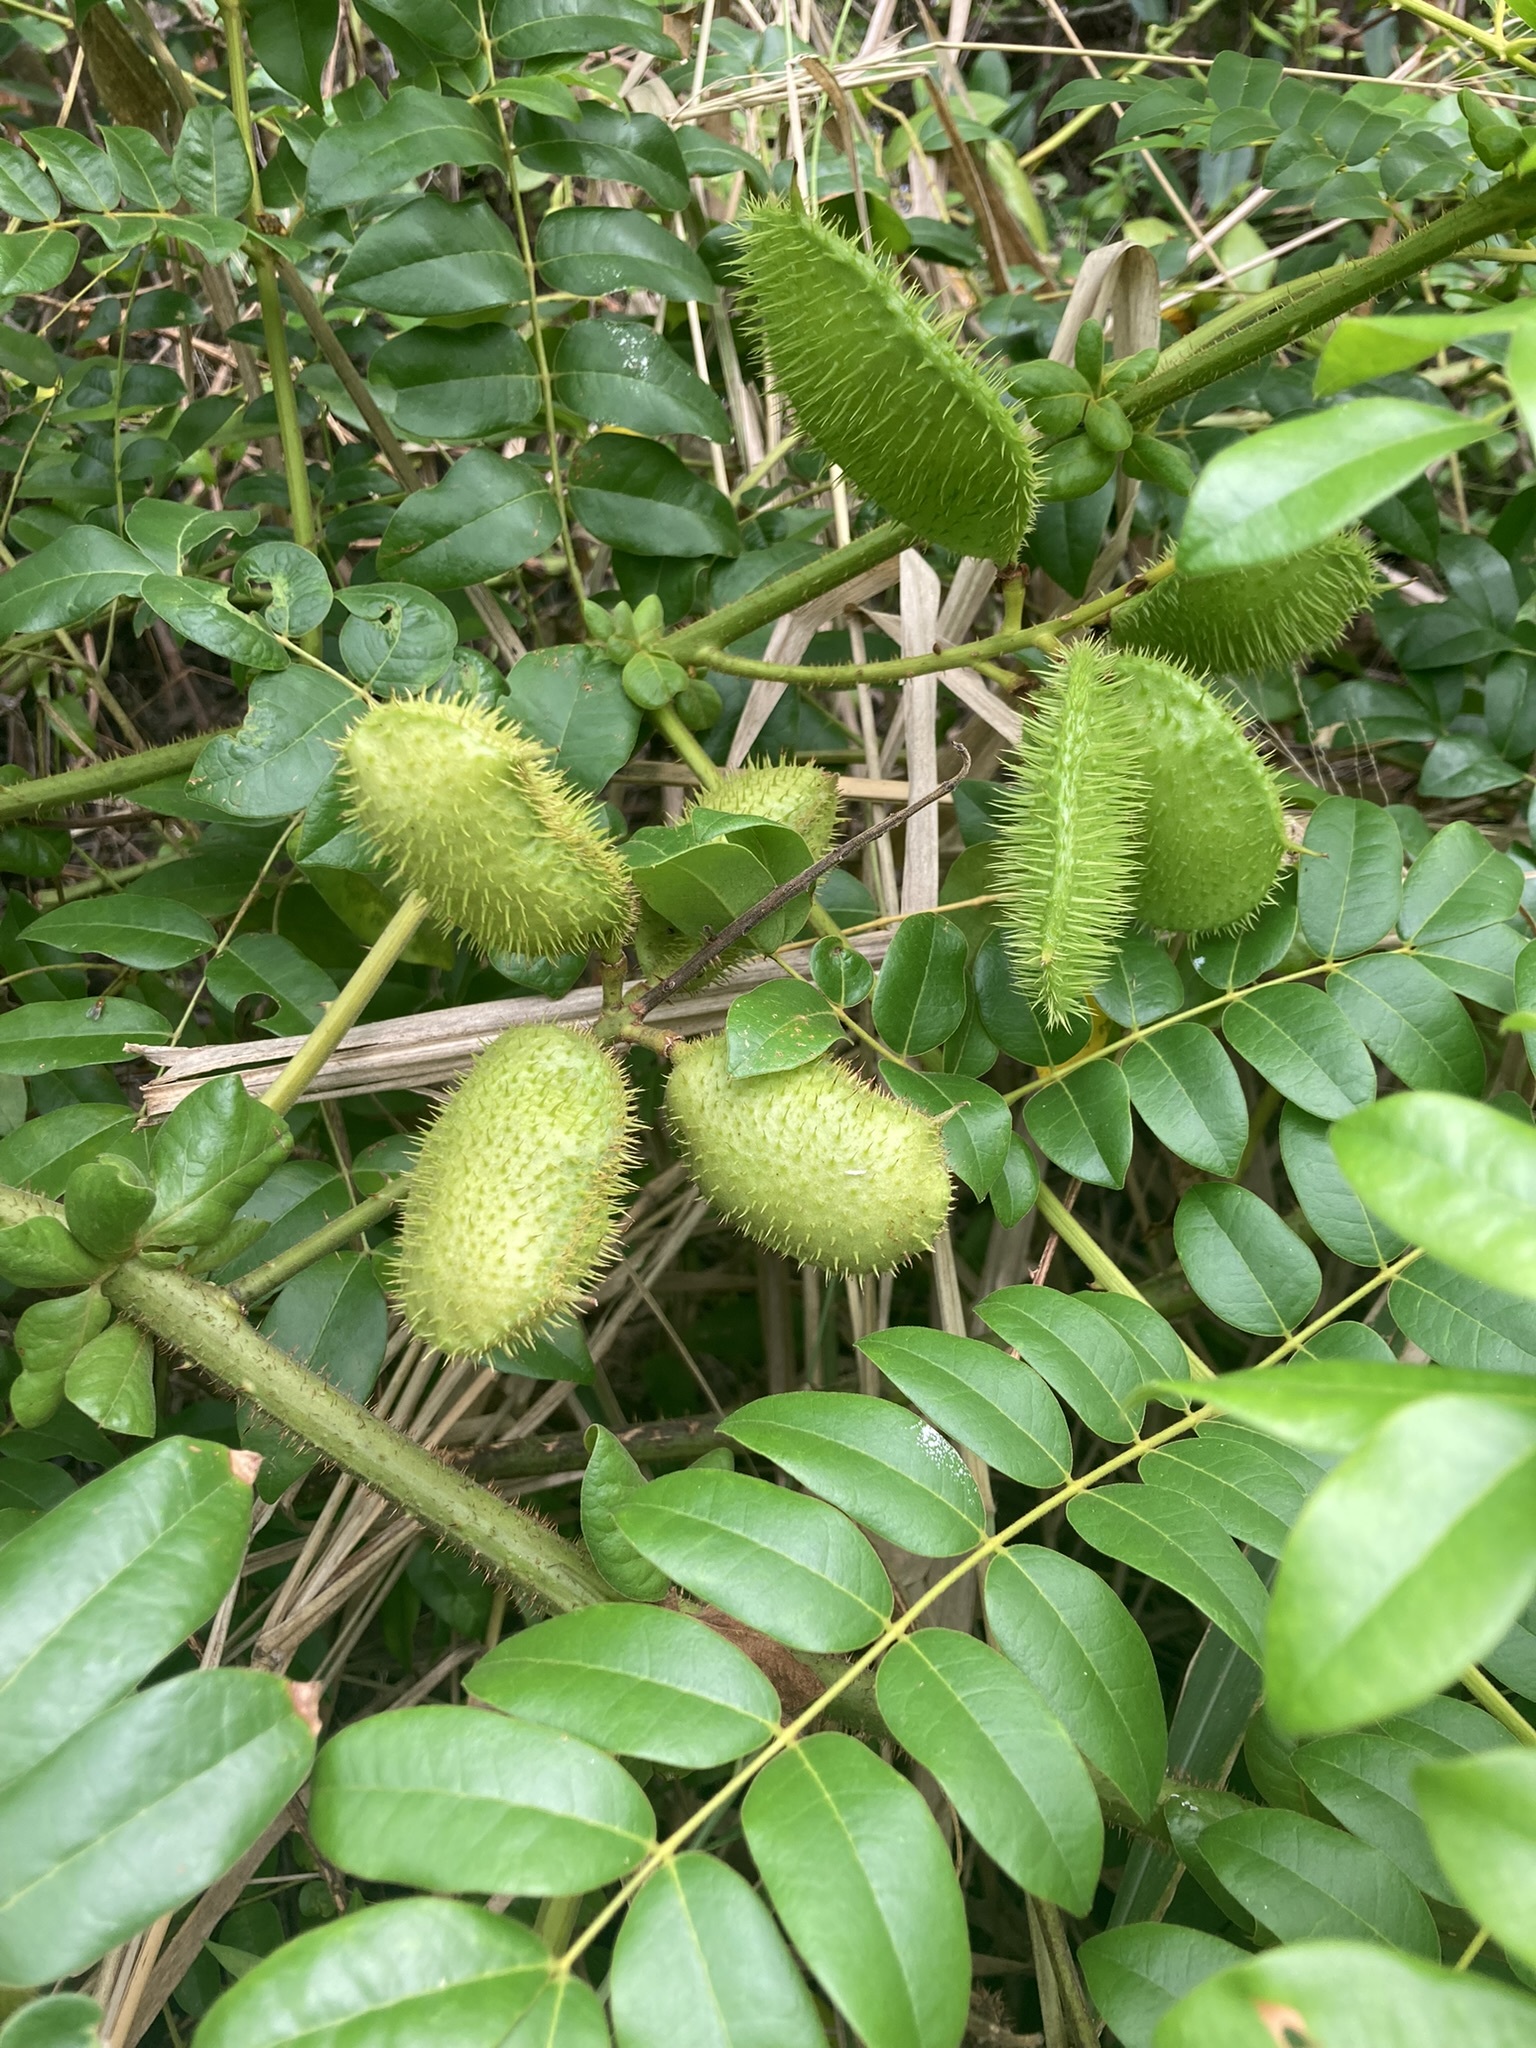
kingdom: Plantae
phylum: Tracheophyta
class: Magnoliopsida
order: Fabales
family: Fabaceae
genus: Guilandina
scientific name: Guilandina bonduc
